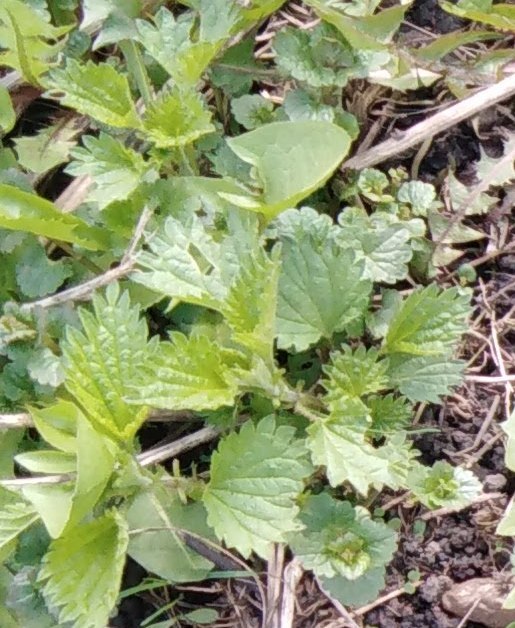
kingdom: Plantae
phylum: Tracheophyta
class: Magnoliopsida
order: Rosales
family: Urticaceae
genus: Urtica
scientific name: Urtica dioica
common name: Common nettle
